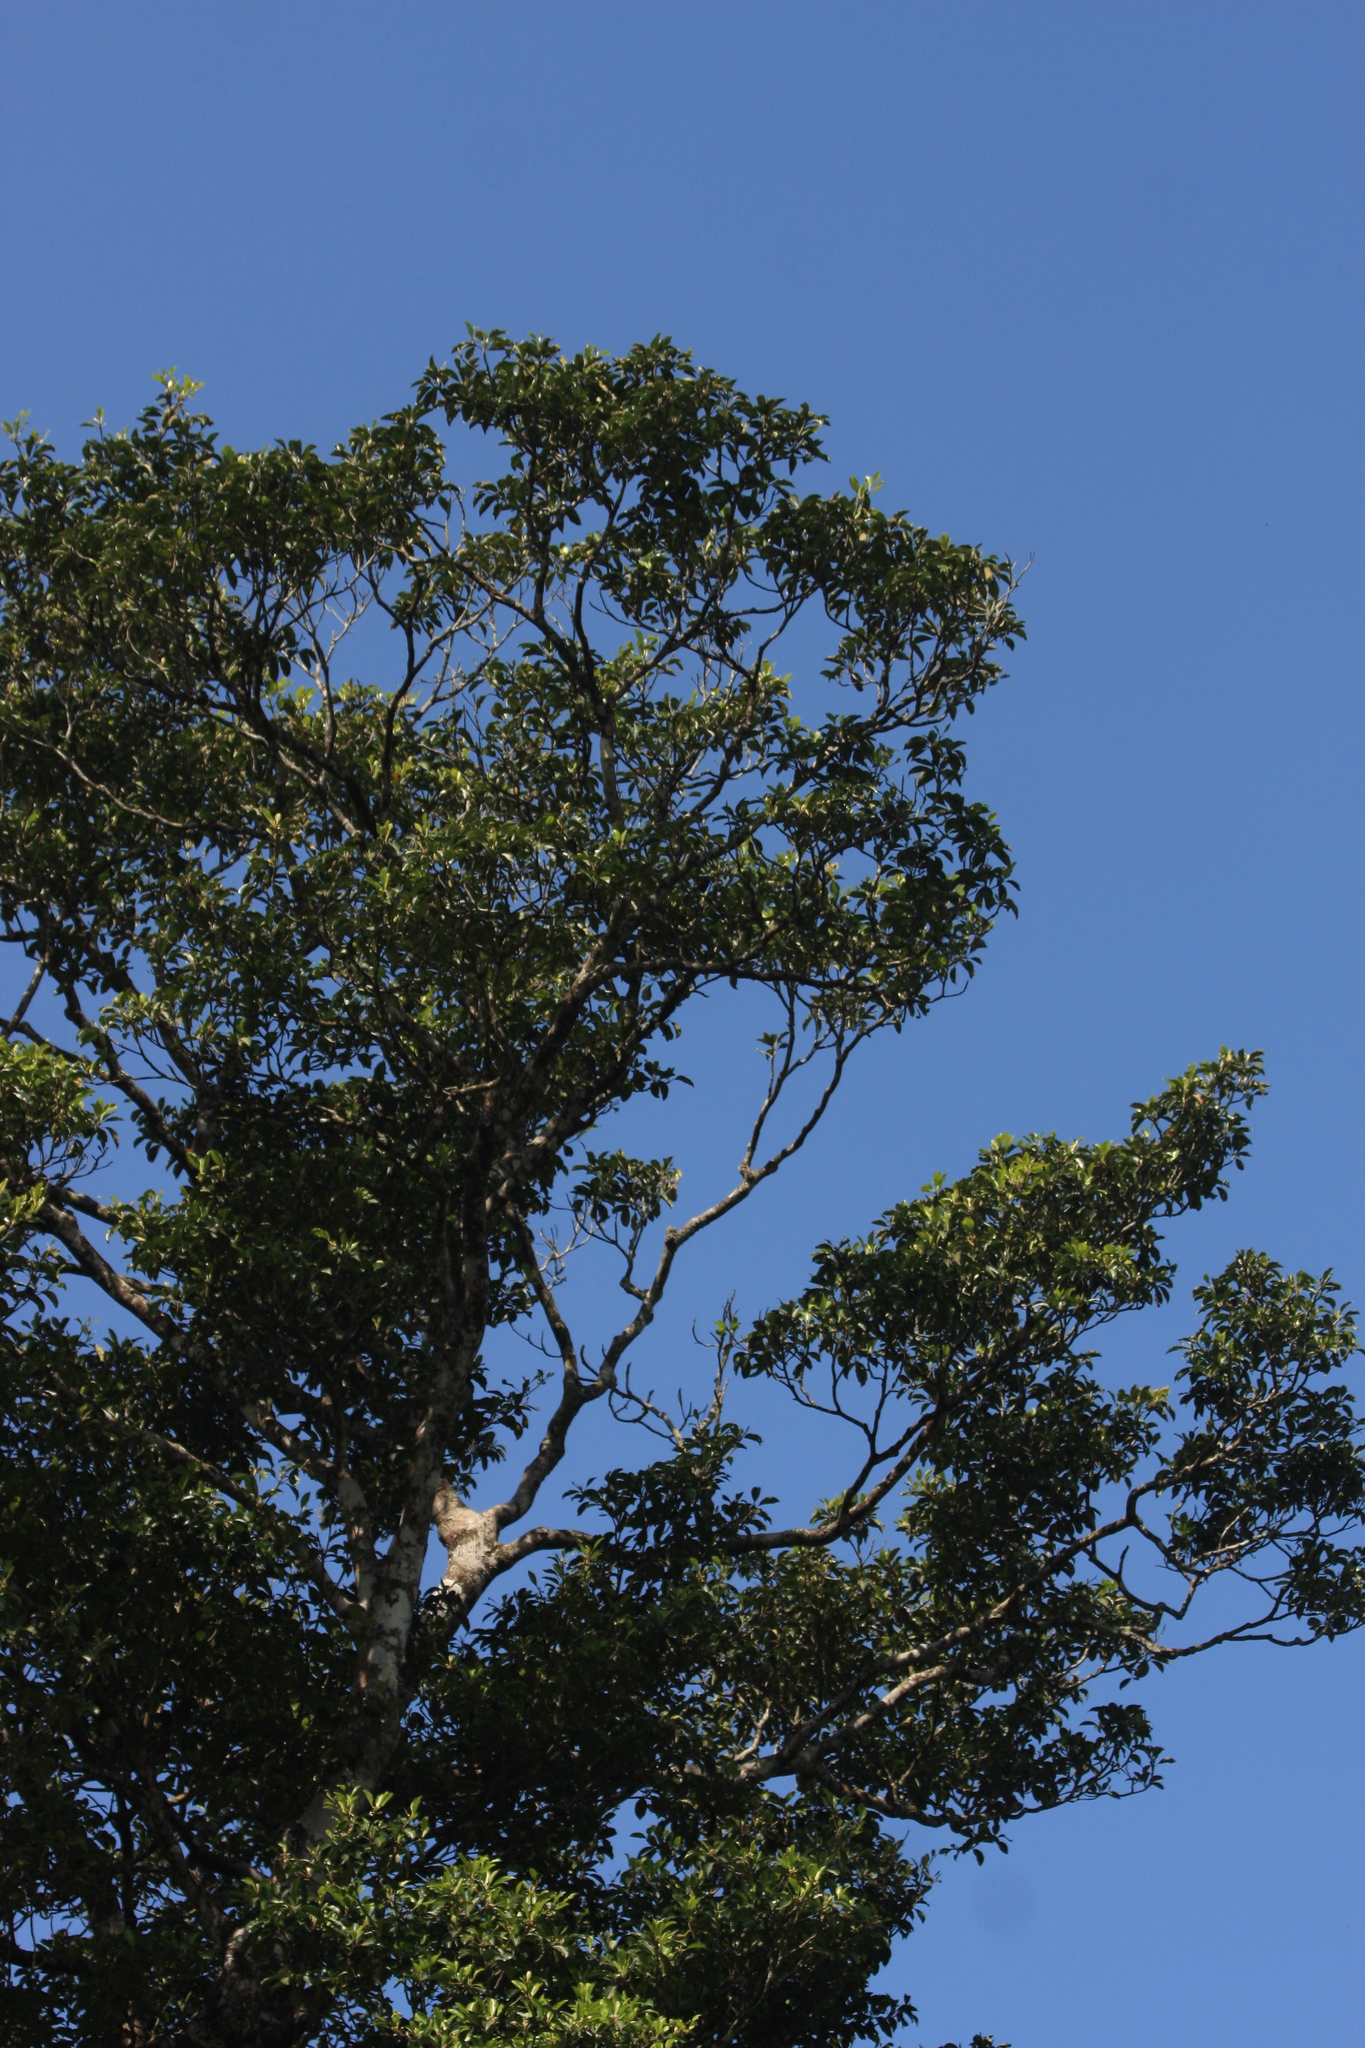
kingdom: Plantae
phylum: Tracheophyta
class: Magnoliopsida
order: Ericales
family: Sapotaceae
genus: Palaquium
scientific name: Palaquium ellipticum
